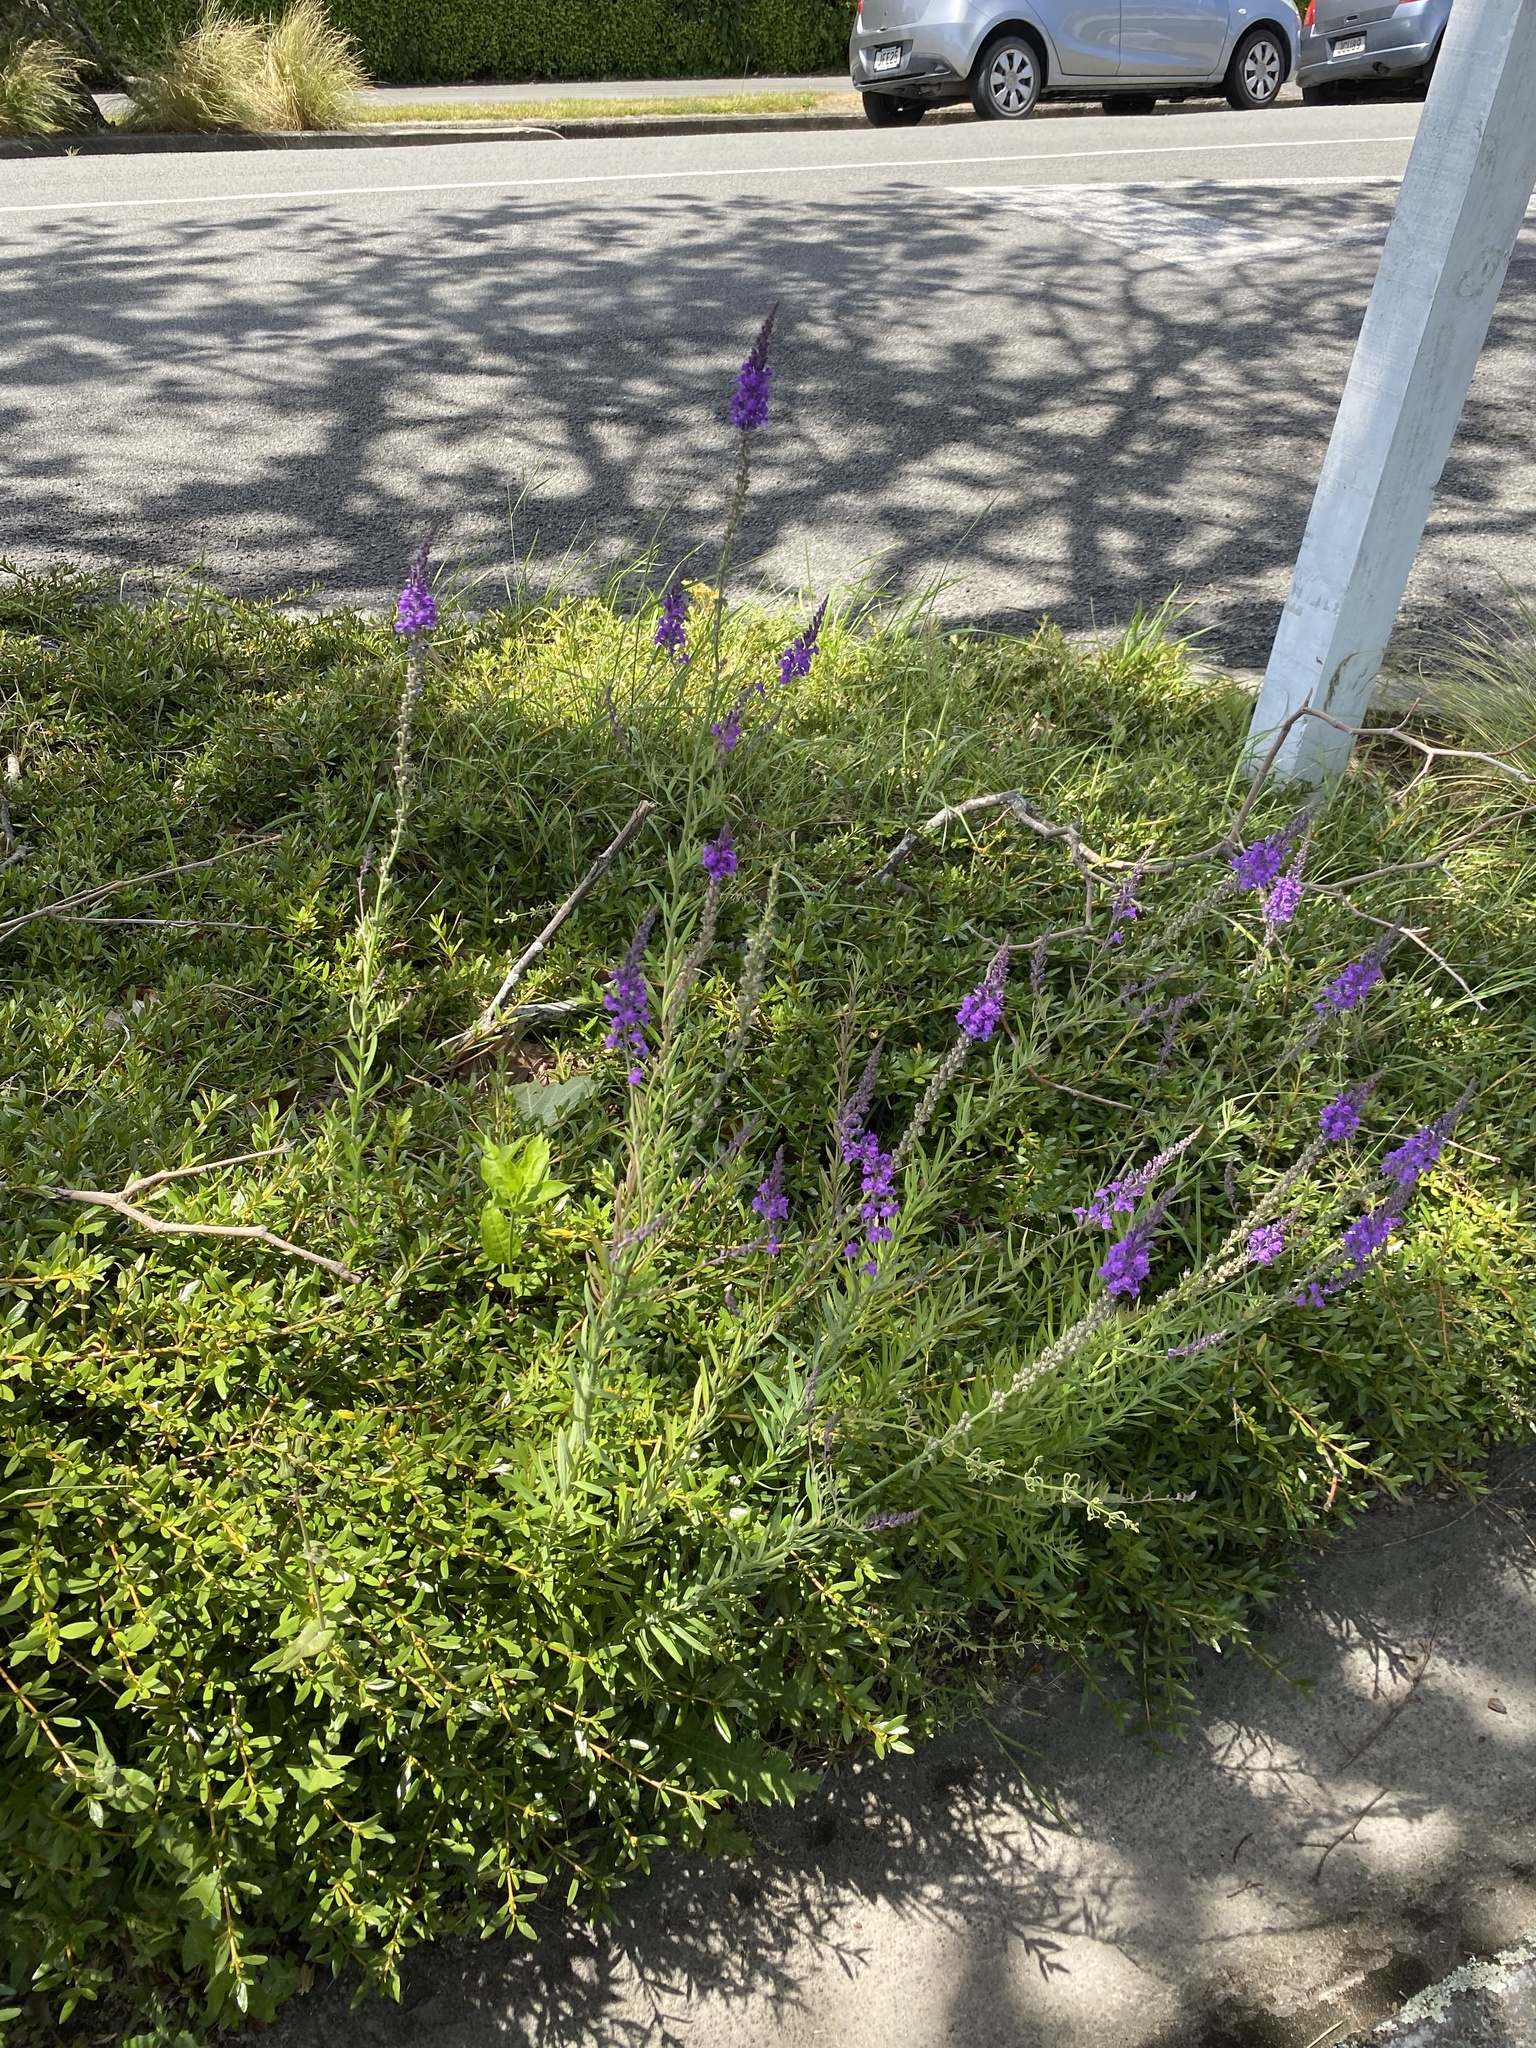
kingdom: Plantae
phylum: Tracheophyta
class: Magnoliopsida
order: Lamiales
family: Plantaginaceae
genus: Linaria
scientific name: Linaria purpurea
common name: Purple toadflax
